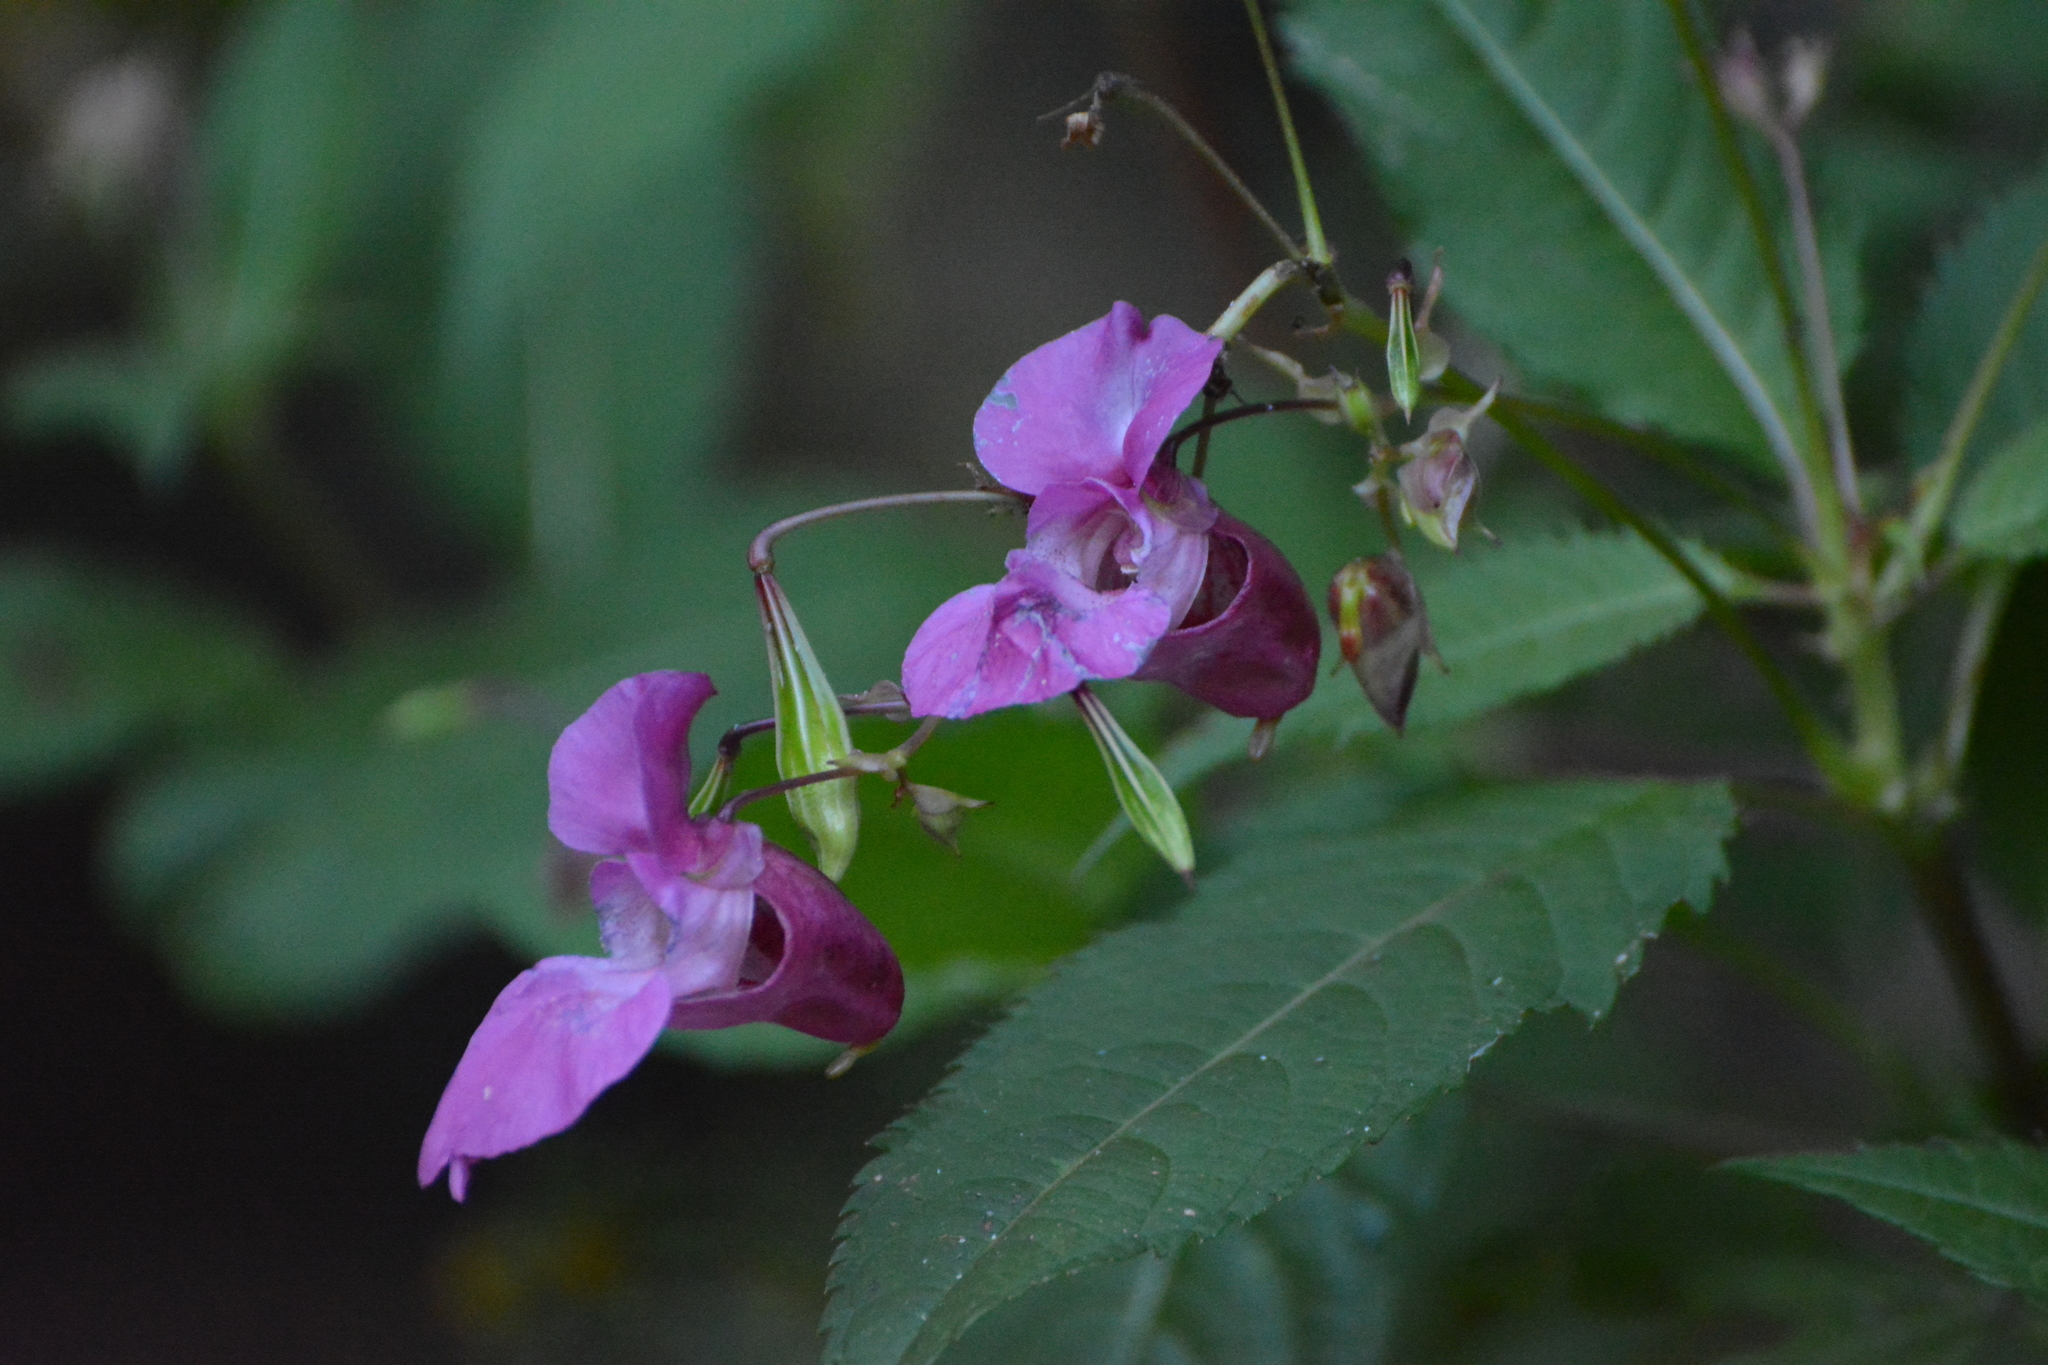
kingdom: Plantae
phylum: Tracheophyta
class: Magnoliopsida
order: Ericales
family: Balsaminaceae
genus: Impatiens
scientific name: Impatiens glandulifera
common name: Himalayan balsam
